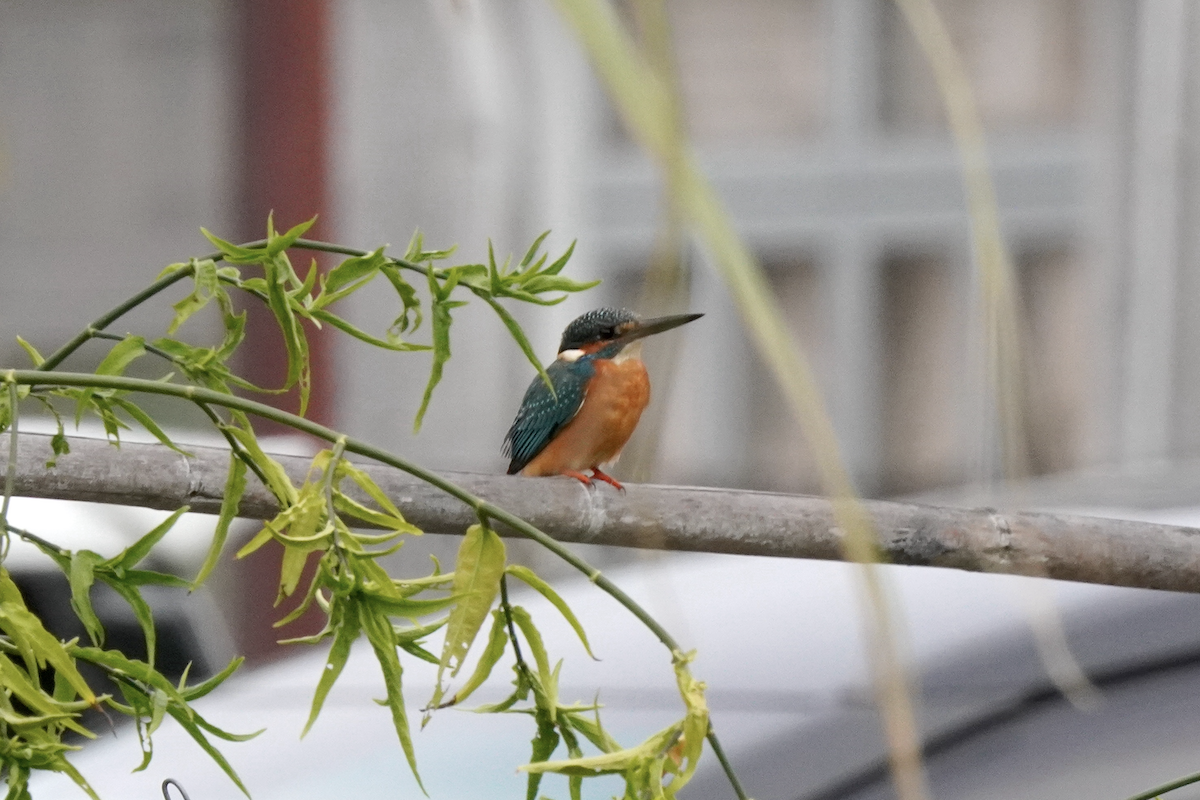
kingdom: Animalia
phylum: Chordata
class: Aves
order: Coraciiformes
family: Alcedinidae
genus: Alcedo
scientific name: Alcedo atthis
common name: Common kingfisher
